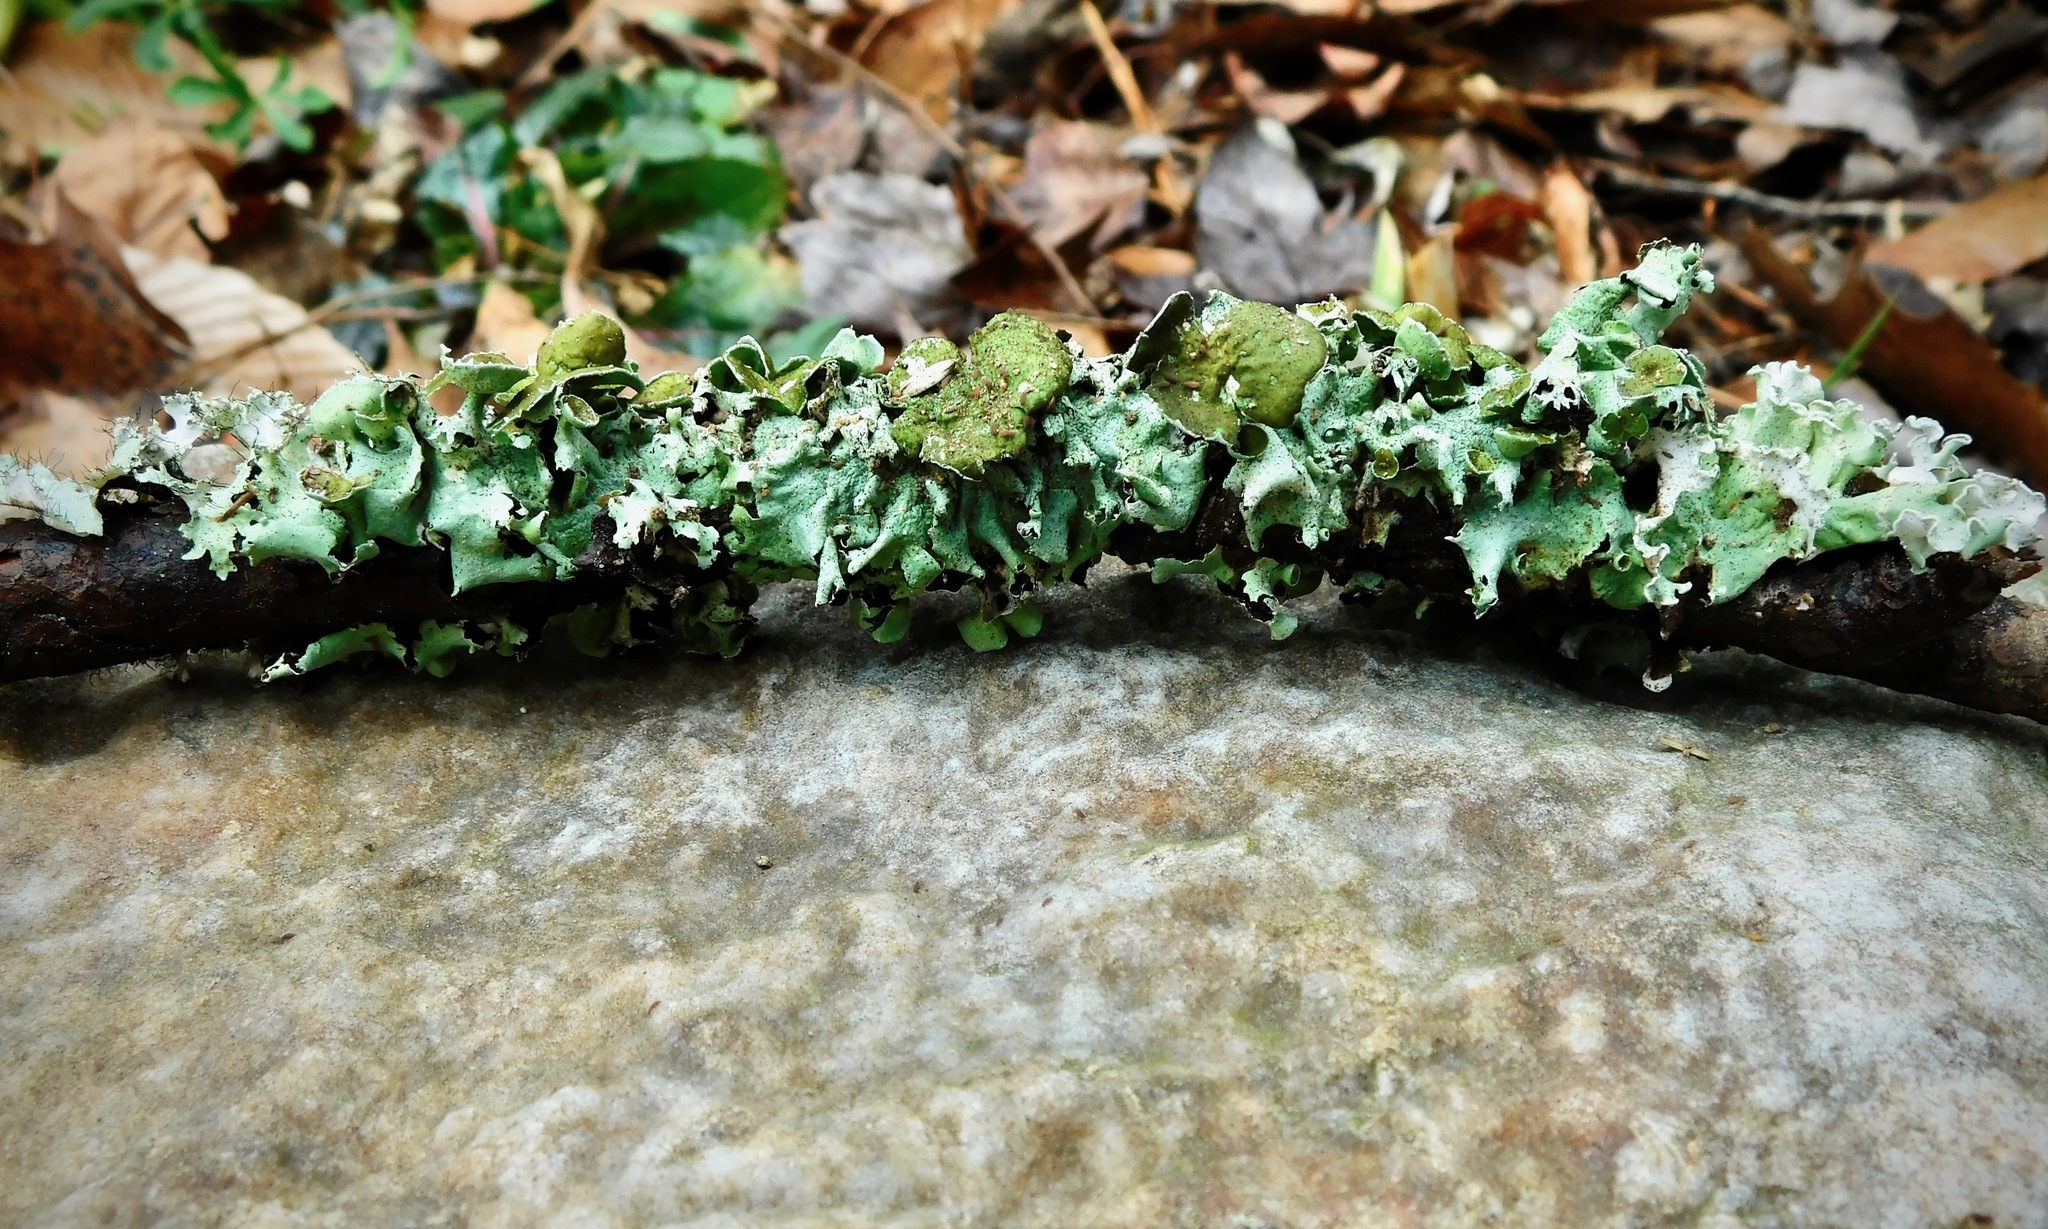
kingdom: Fungi
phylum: Ascomycota
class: Lecanoromycetes
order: Lecanorales
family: Parmeliaceae
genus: Parmotrema
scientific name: Parmotrema submarginale
